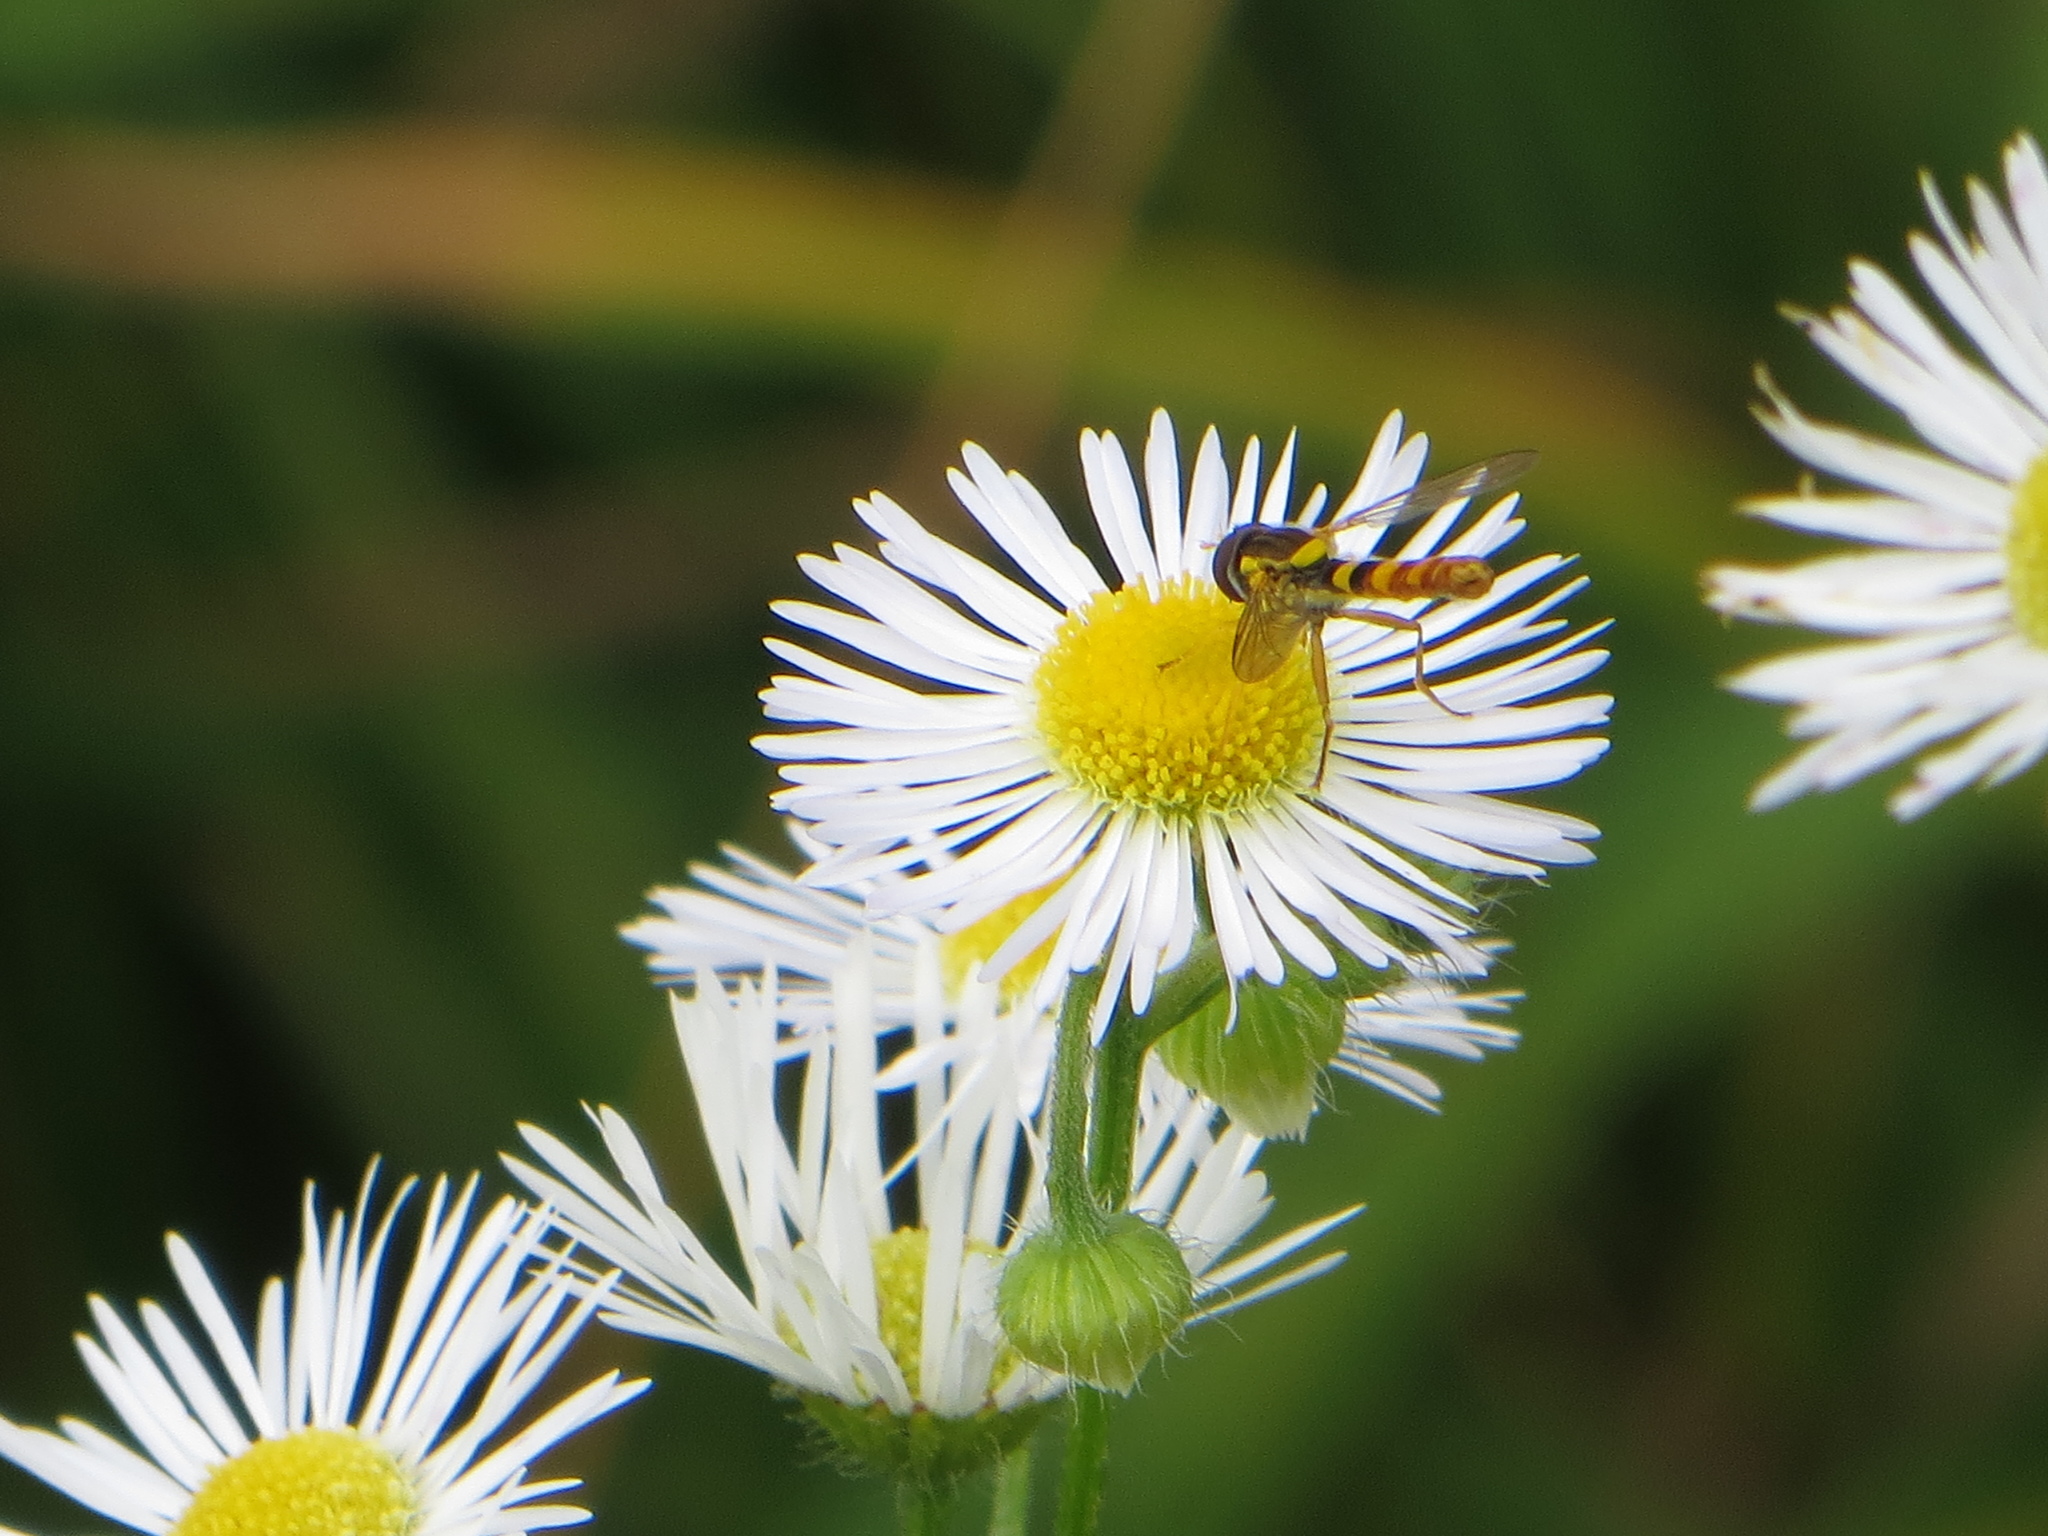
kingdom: Animalia
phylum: Arthropoda
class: Insecta
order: Diptera
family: Syrphidae
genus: Sphaerophoria
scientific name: Sphaerophoria scripta
